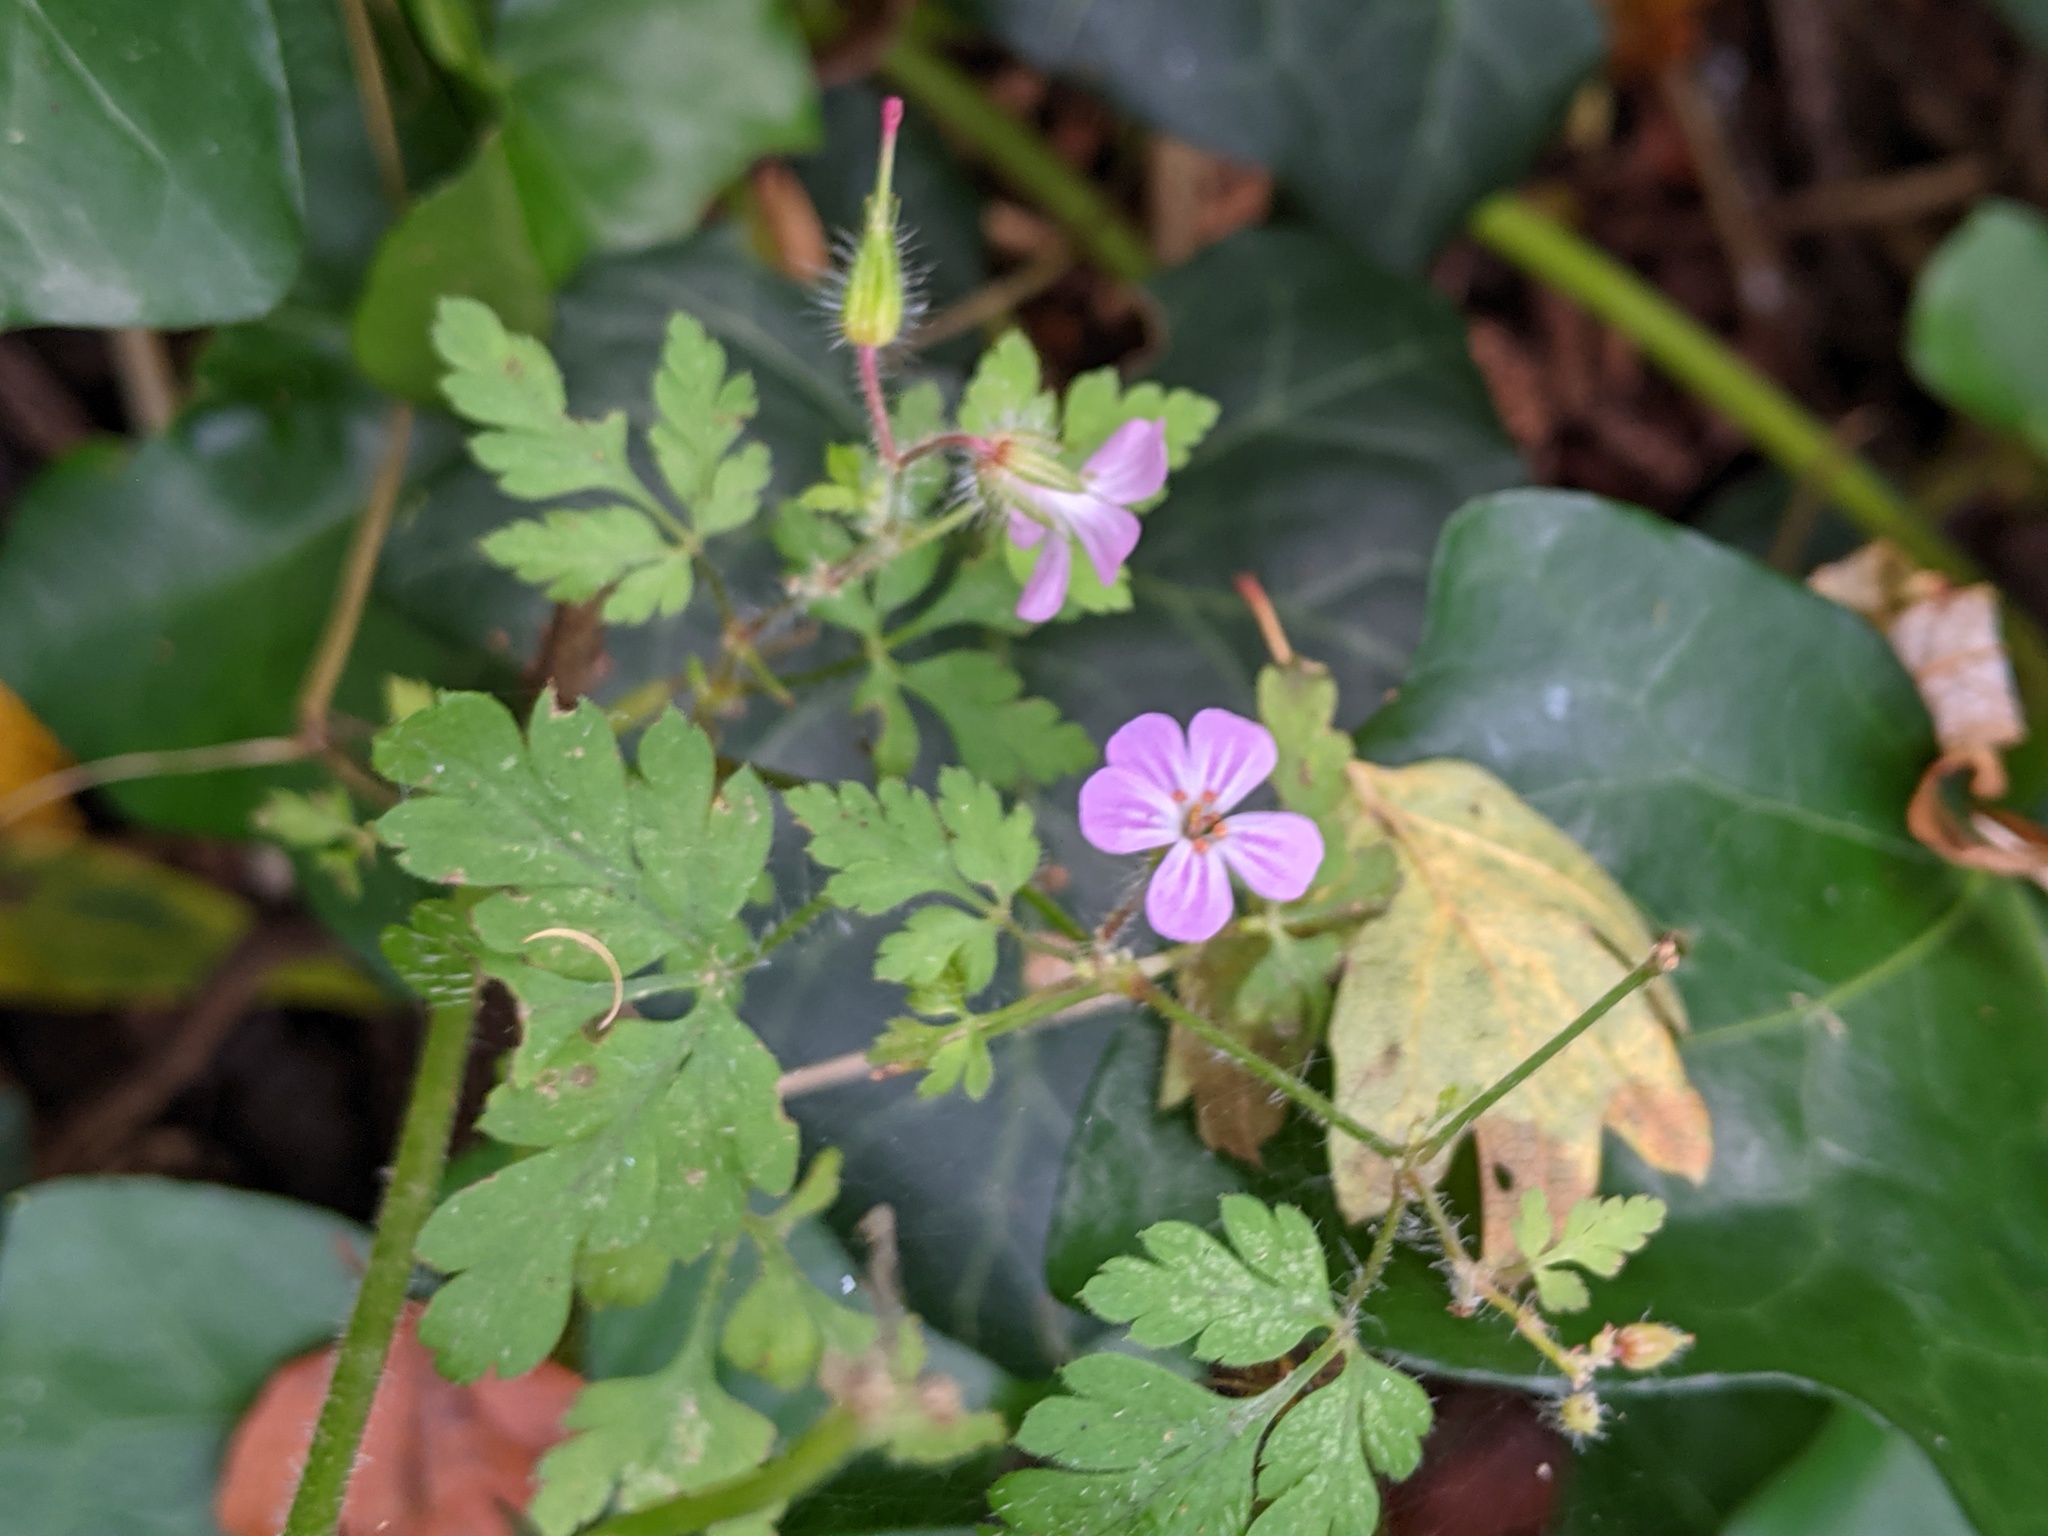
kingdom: Plantae
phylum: Tracheophyta
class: Magnoliopsida
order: Geraniales
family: Geraniaceae
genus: Geranium
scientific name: Geranium robertianum
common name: Herb-robert
